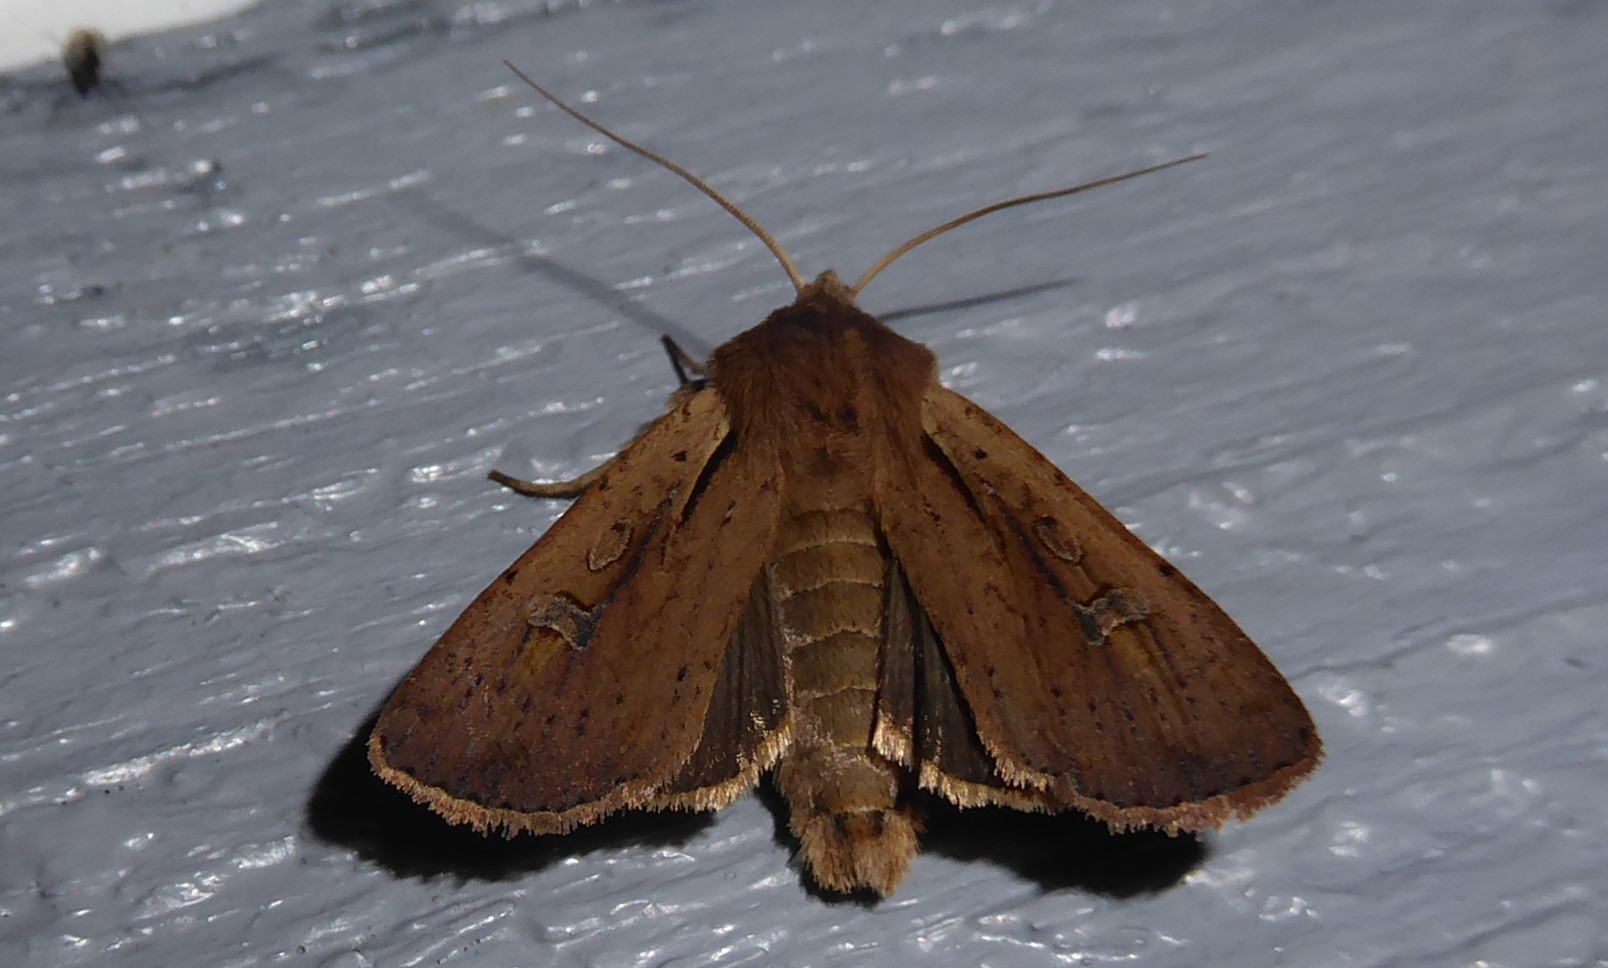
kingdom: Animalia
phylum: Arthropoda
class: Insecta
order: Lepidoptera
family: Noctuidae
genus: Ichneutica
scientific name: Ichneutica atristriga
